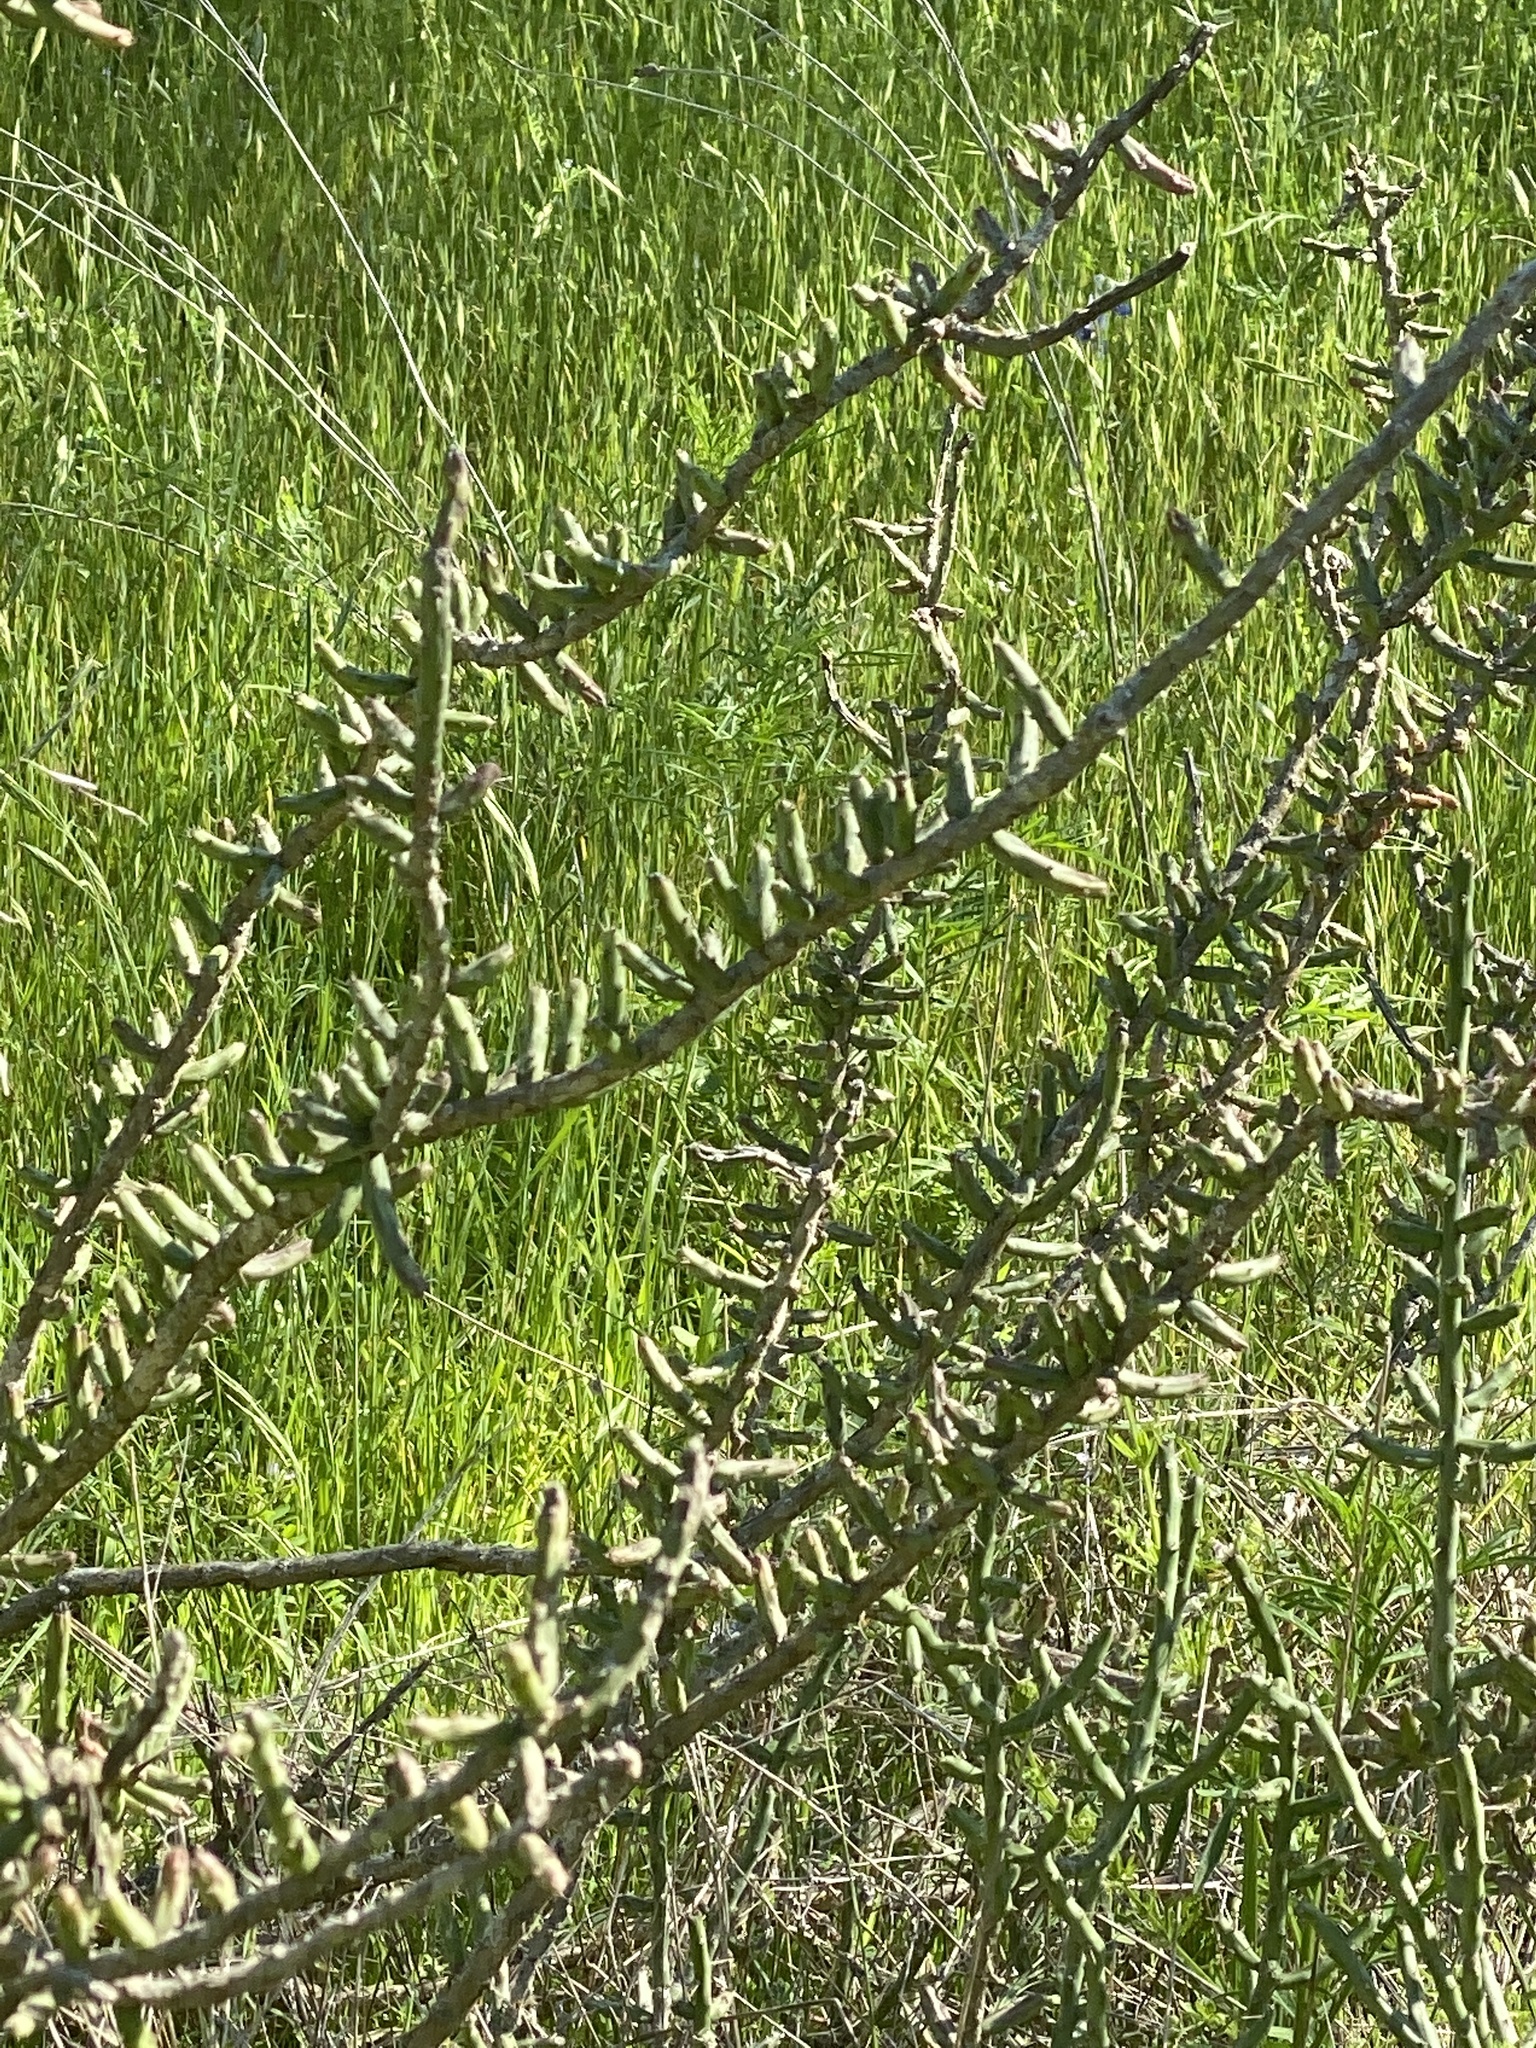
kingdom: Plantae
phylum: Tracheophyta
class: Magnoliopsida
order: Caryophyllales
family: Cactaceae
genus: Cylindropuntia
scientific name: Cylindropuntia leptocaulis
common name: Christmas cactus
